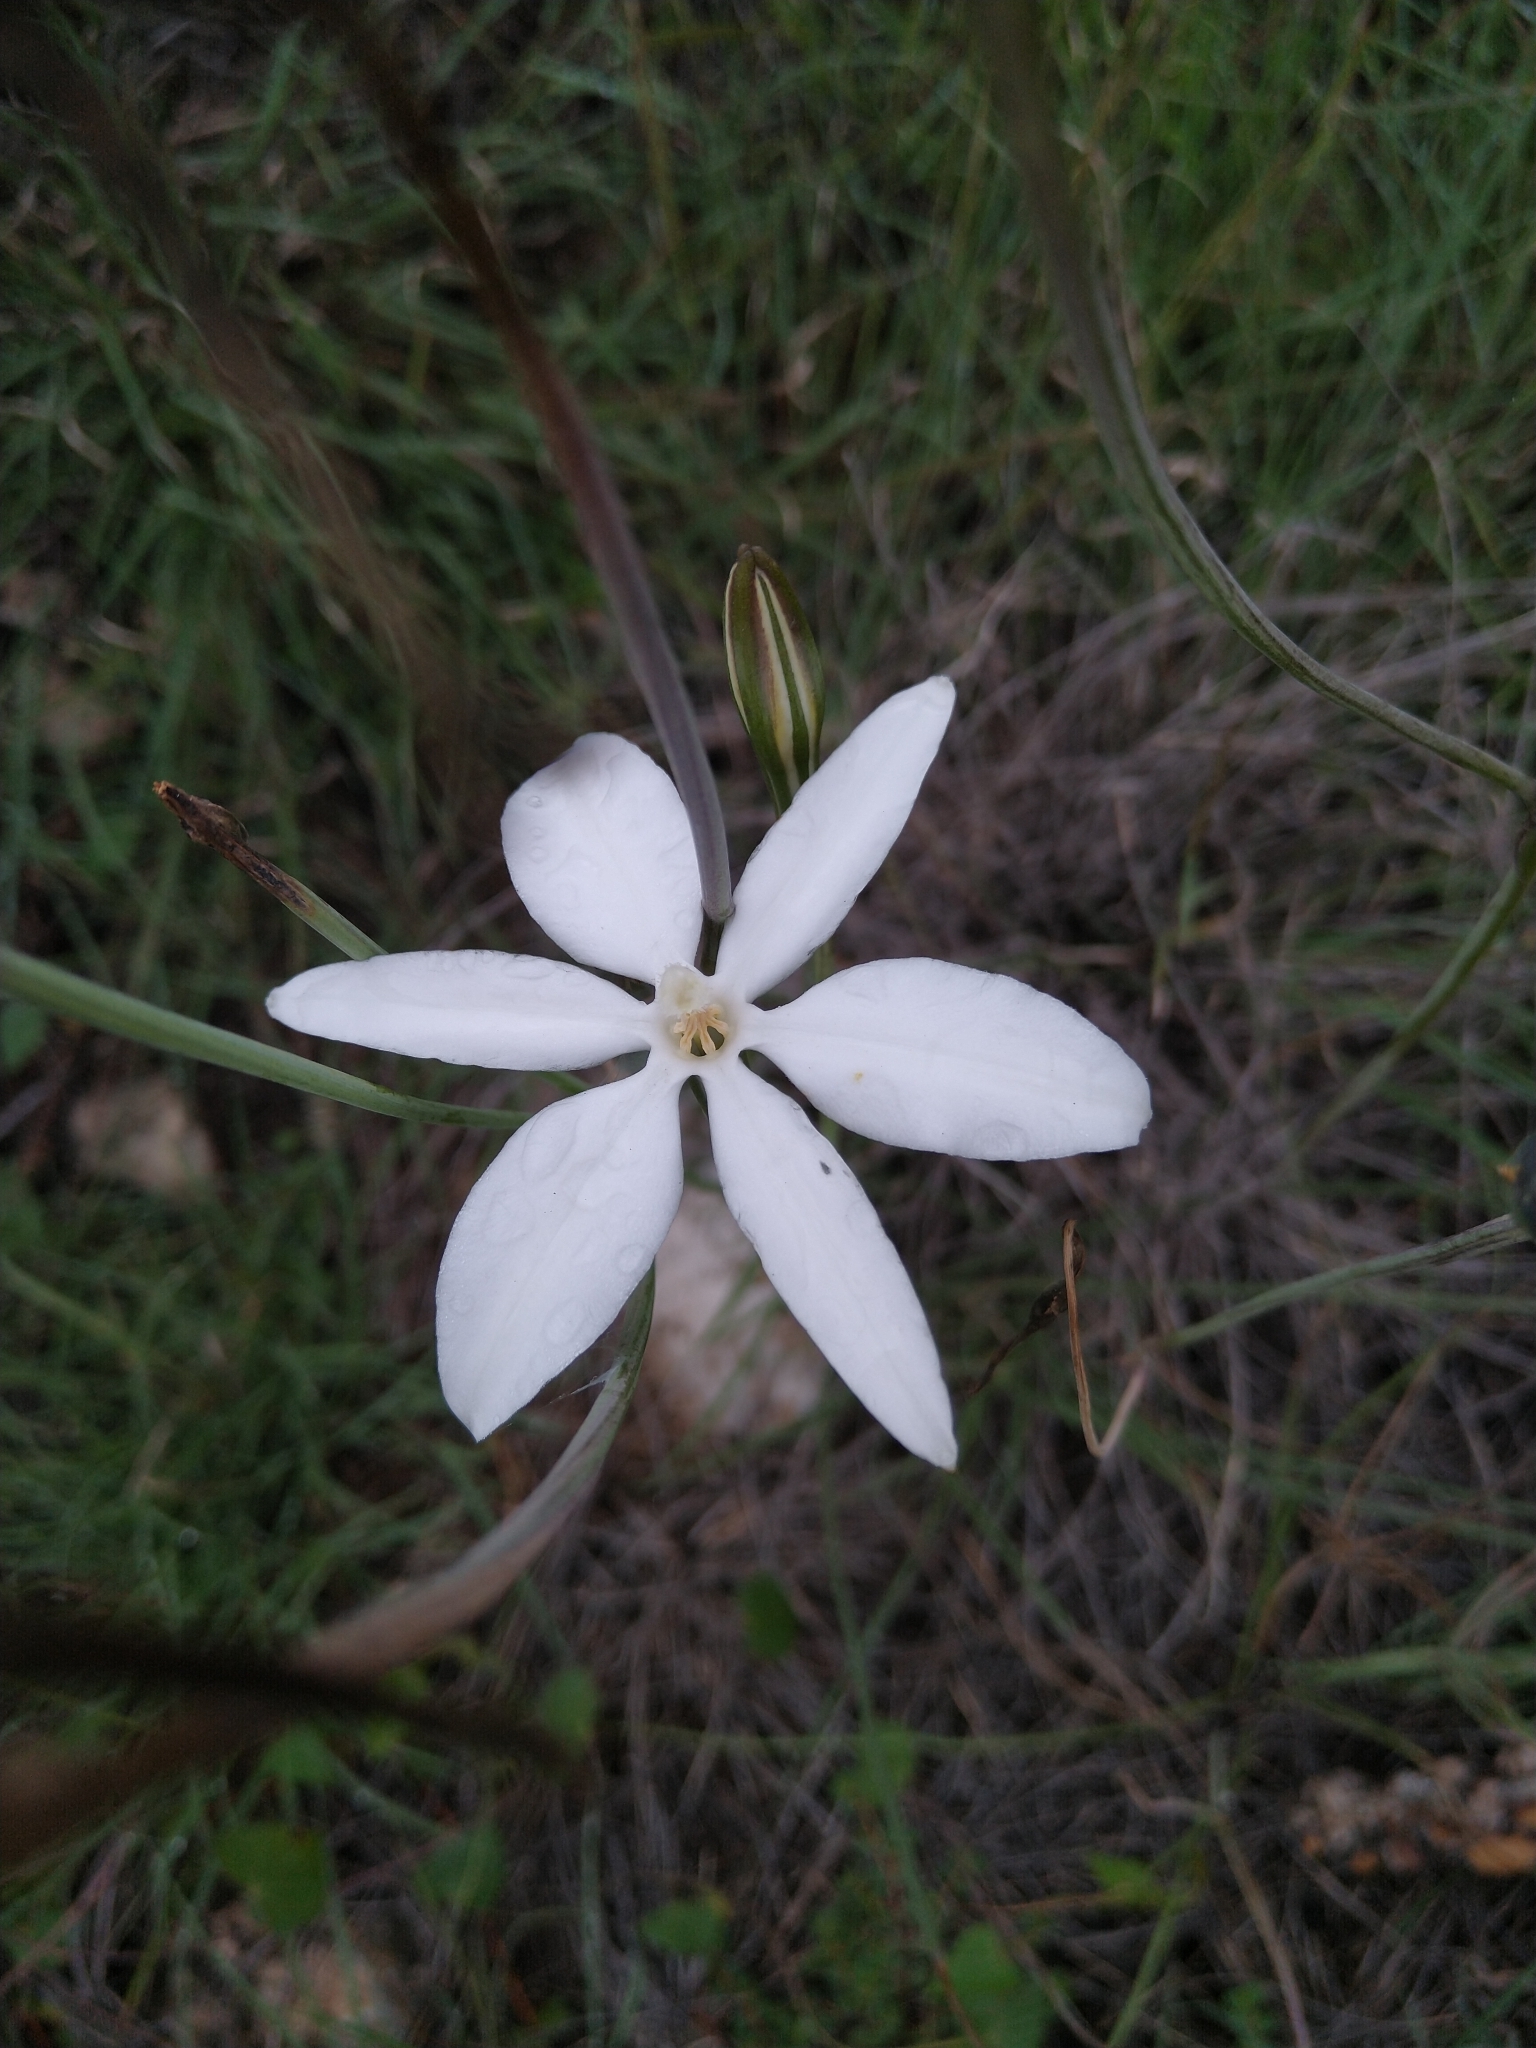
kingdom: Plantae
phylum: Tracheophyta
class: Liliopsida
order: Asparagales
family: Asparagaceae
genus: Milla
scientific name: Milla biflora
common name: Mexican-star
